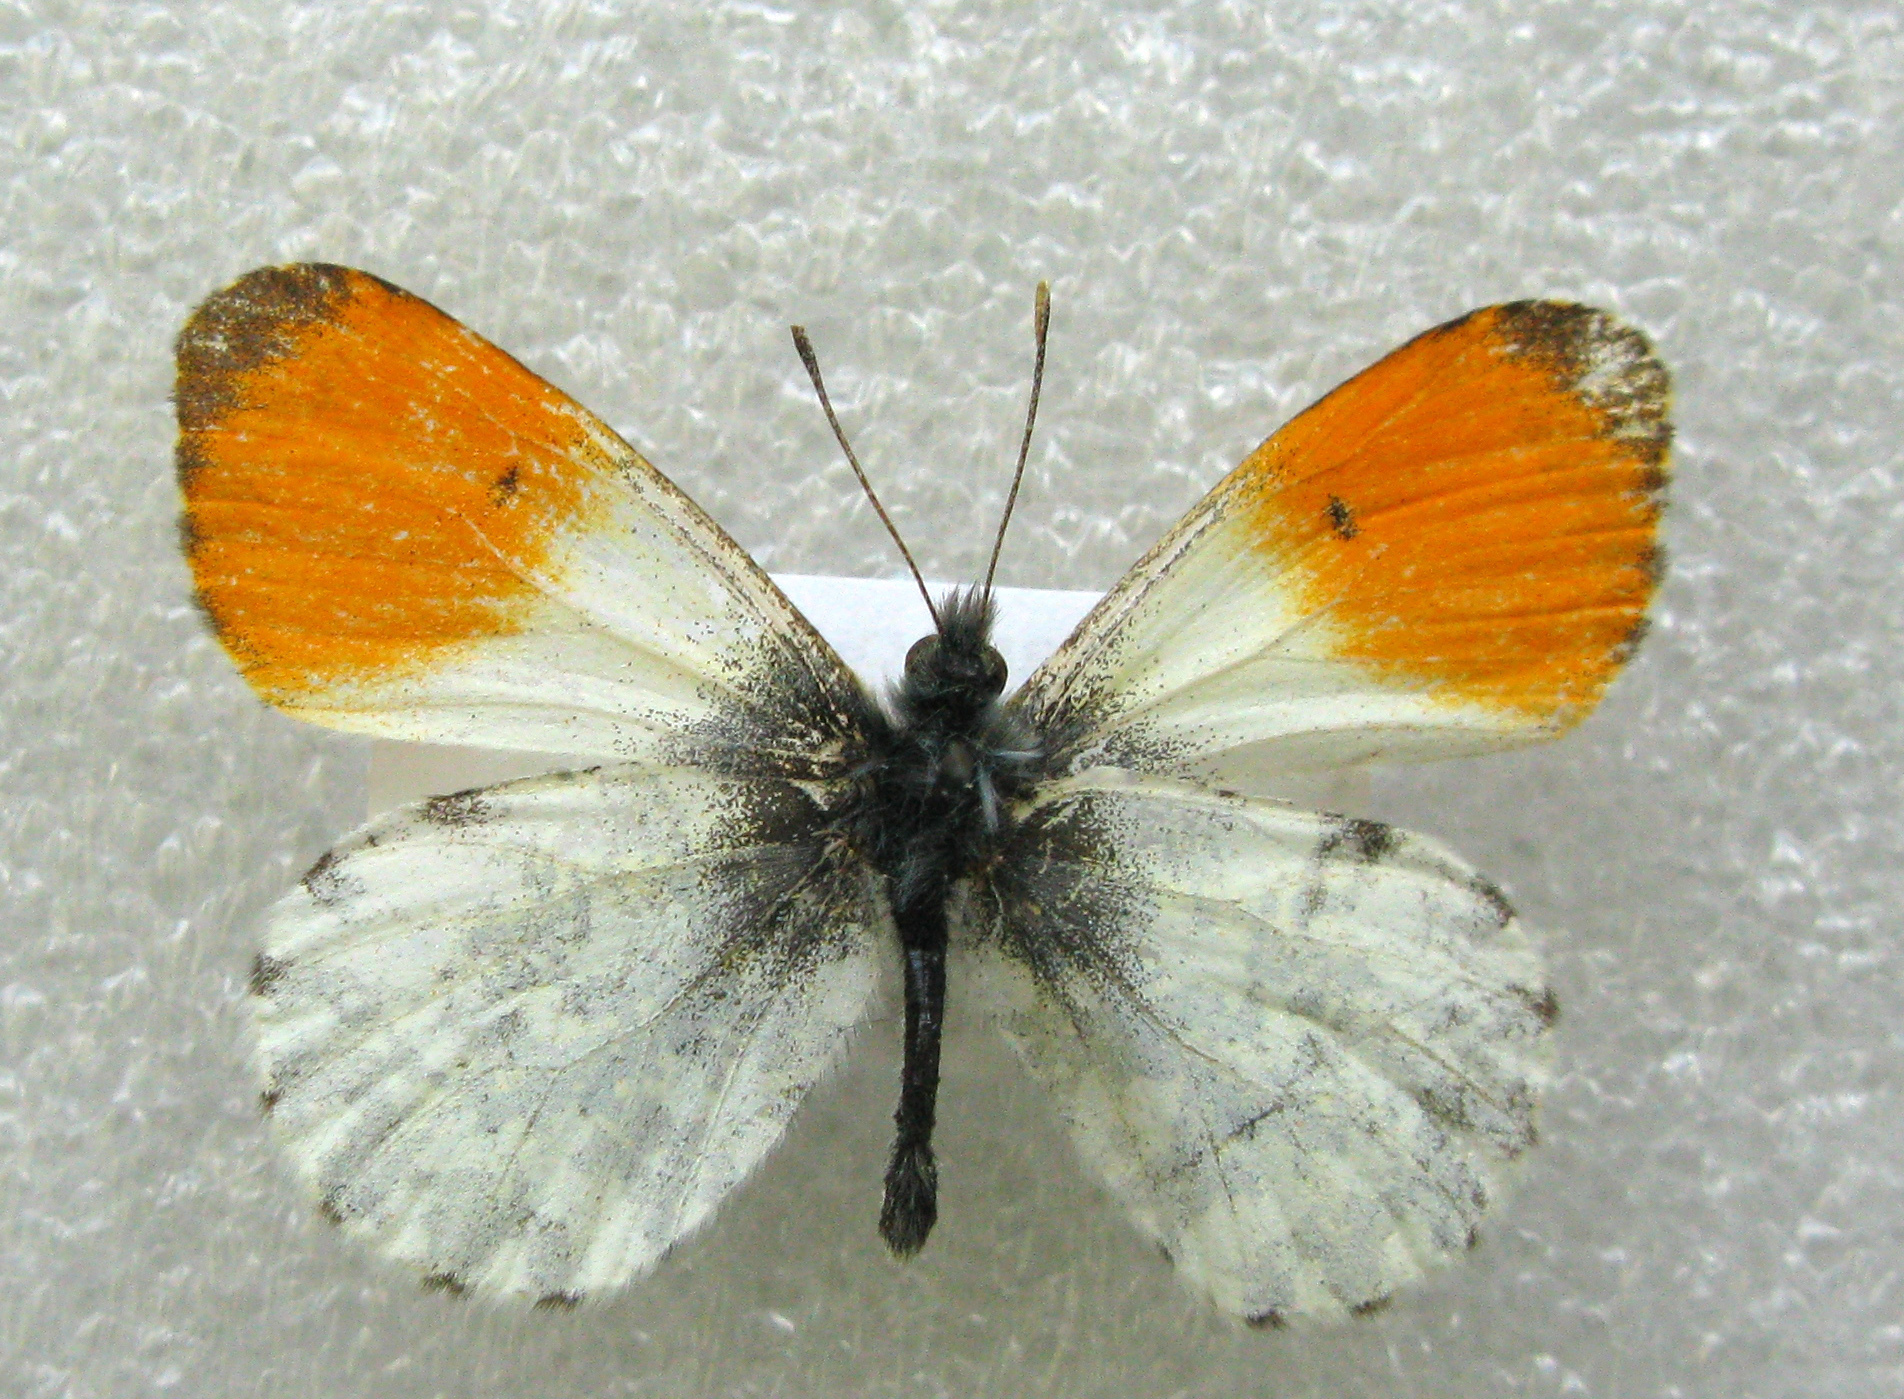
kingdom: Animalia
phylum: Arthropoda
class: Insecta
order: Lepidoptera
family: Pieridae
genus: Anthocharis
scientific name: Anthocharis cardamines
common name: Orange-tip
